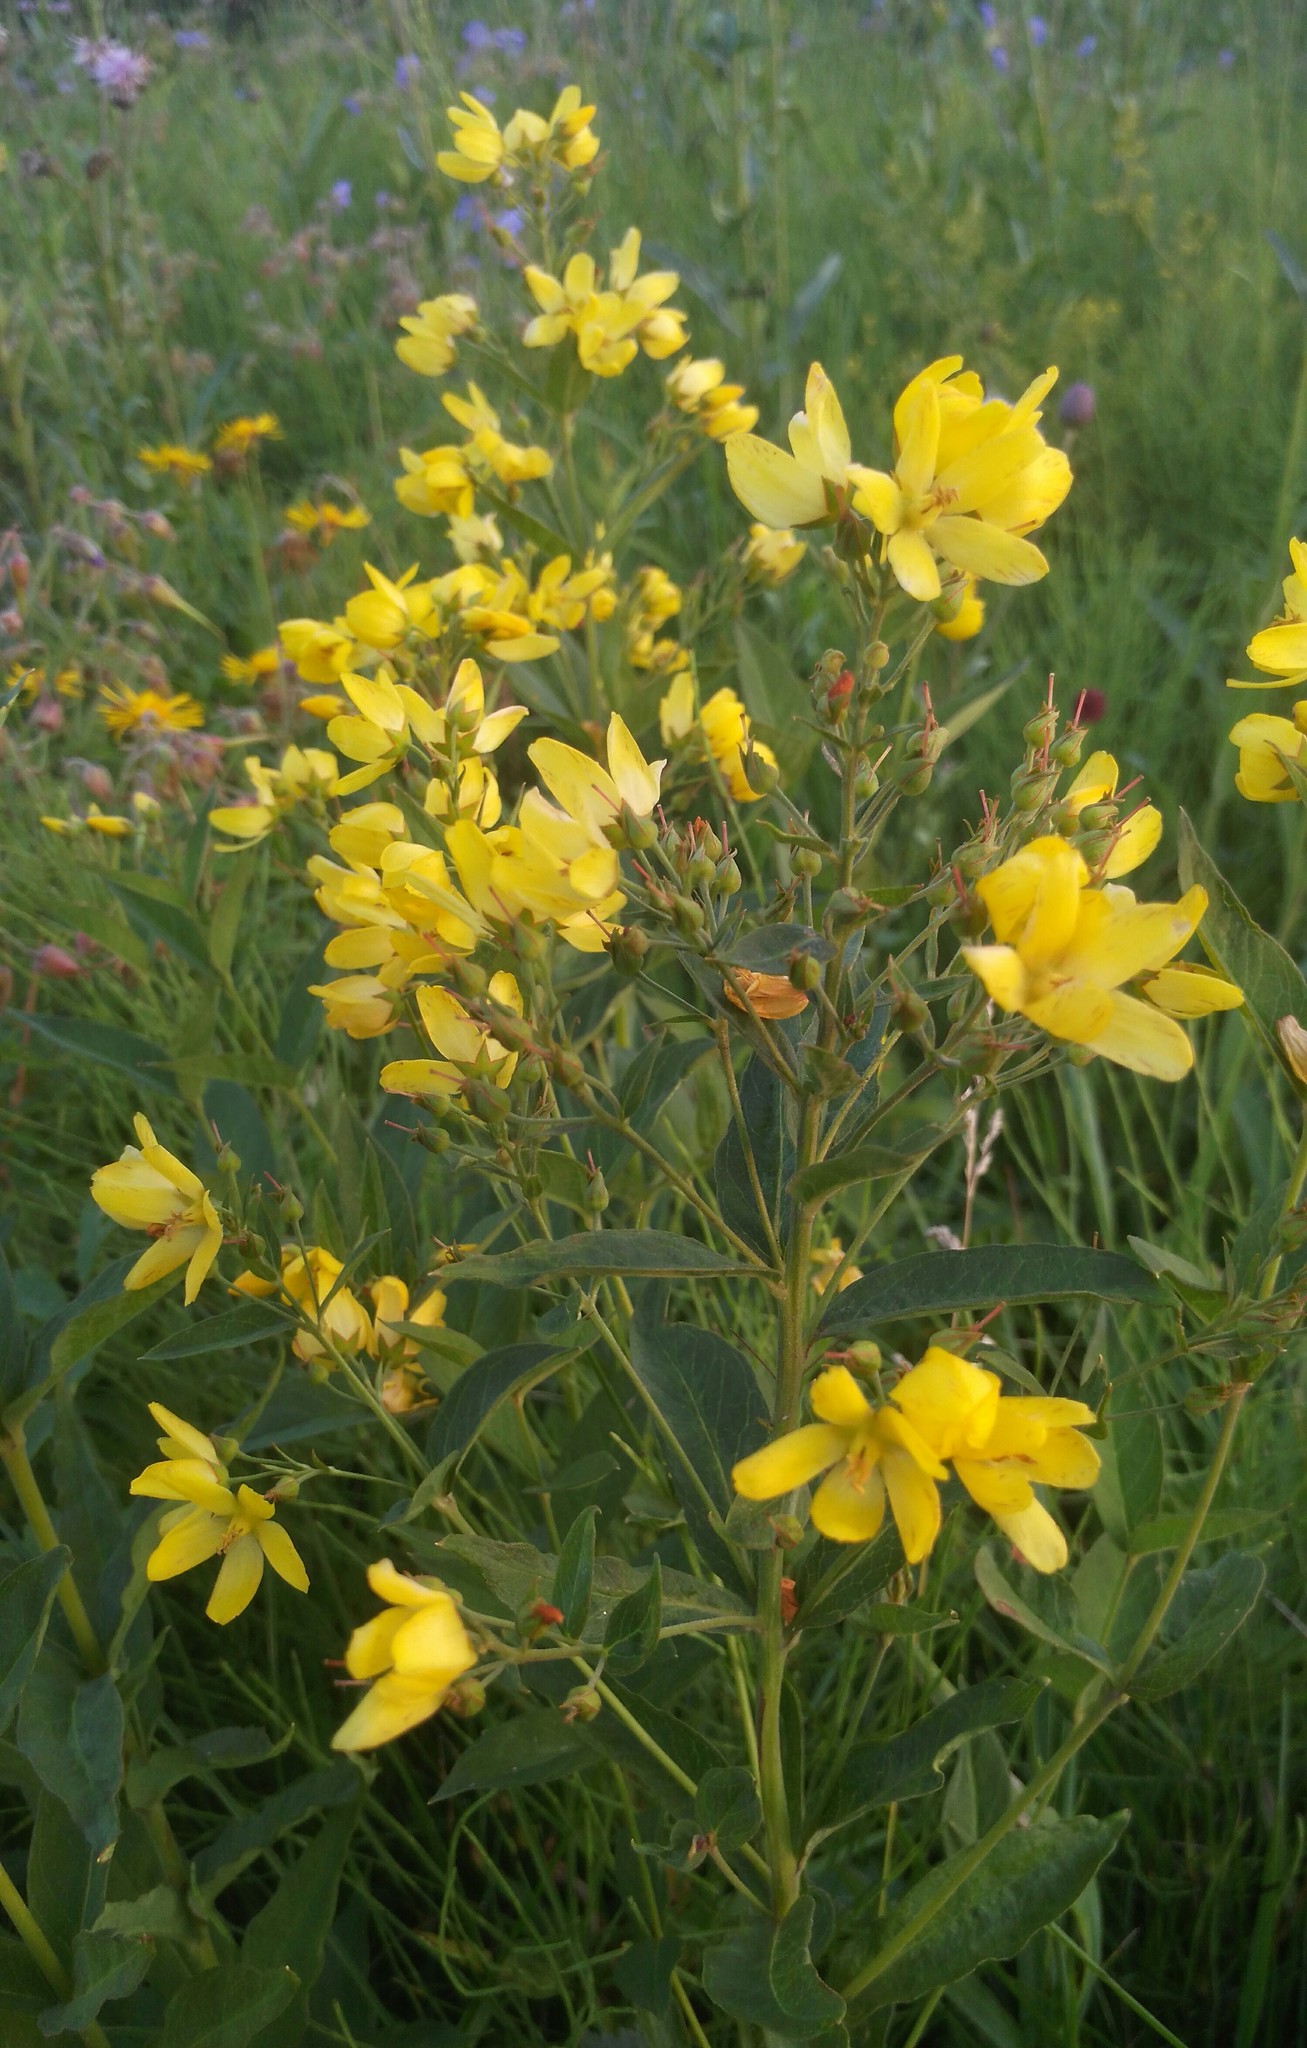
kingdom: Plantae
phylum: Tracheophyta
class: Magnoliopsida
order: Ericales
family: Primulaceae
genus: Lysimachia
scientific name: Lysimachia davurica
